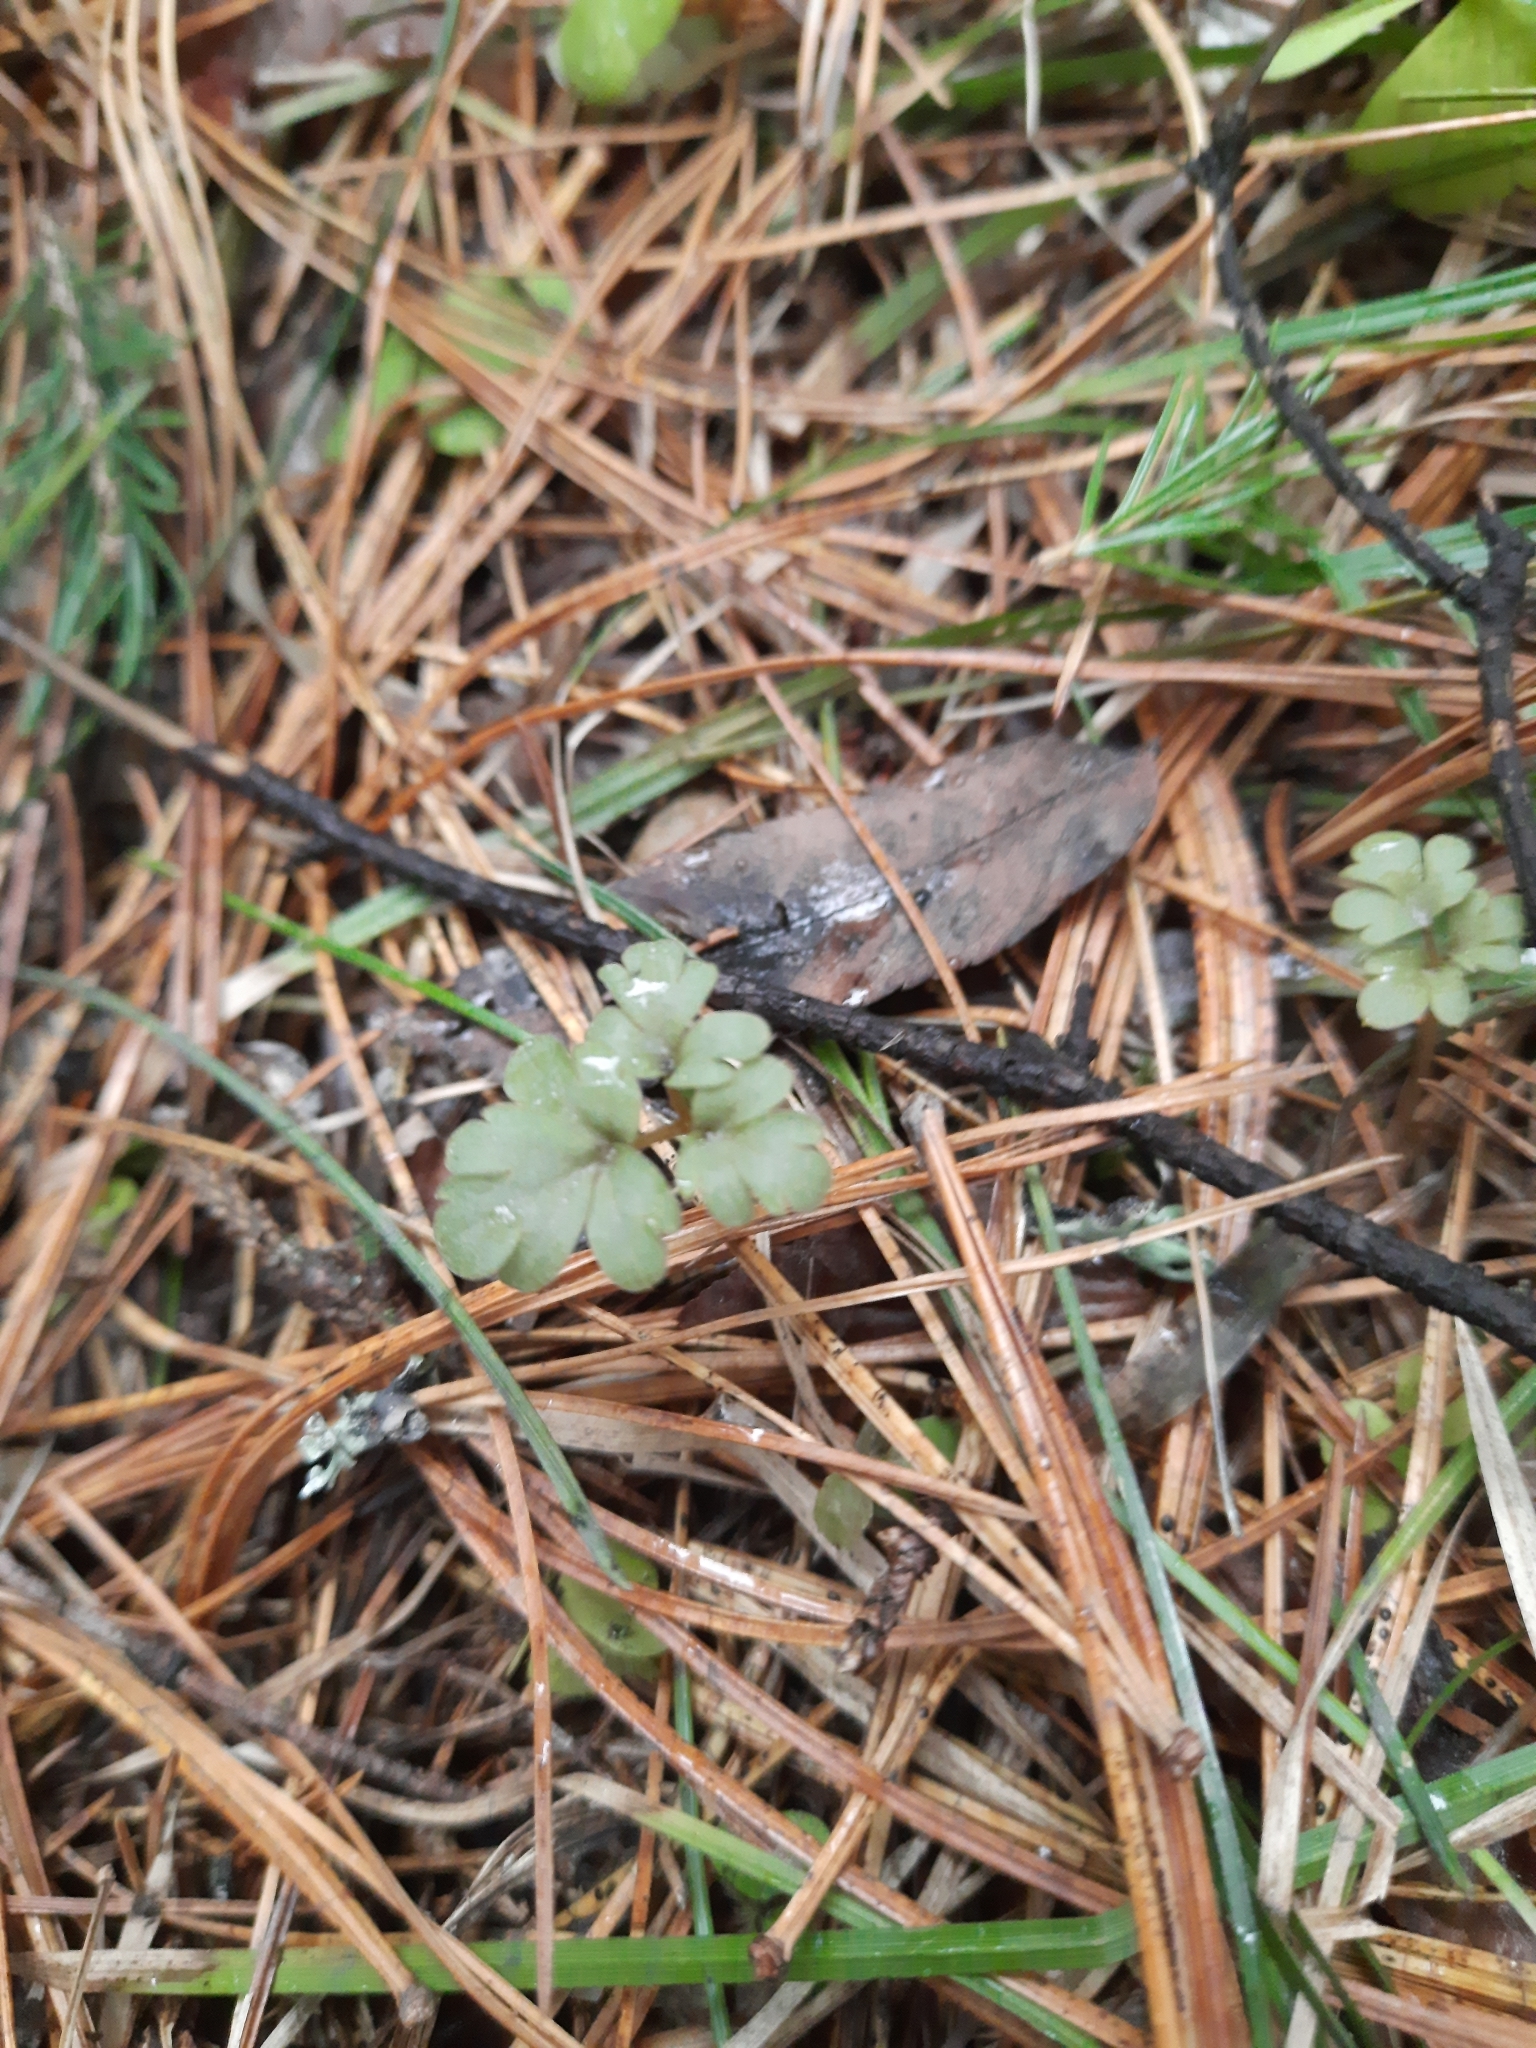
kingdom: Plantae
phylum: Tracheophyta
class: Magnoliopsida
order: Dipsacales
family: Viburnaceae
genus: Adoxa
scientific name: Adoxa moschatellina
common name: Moschatel
